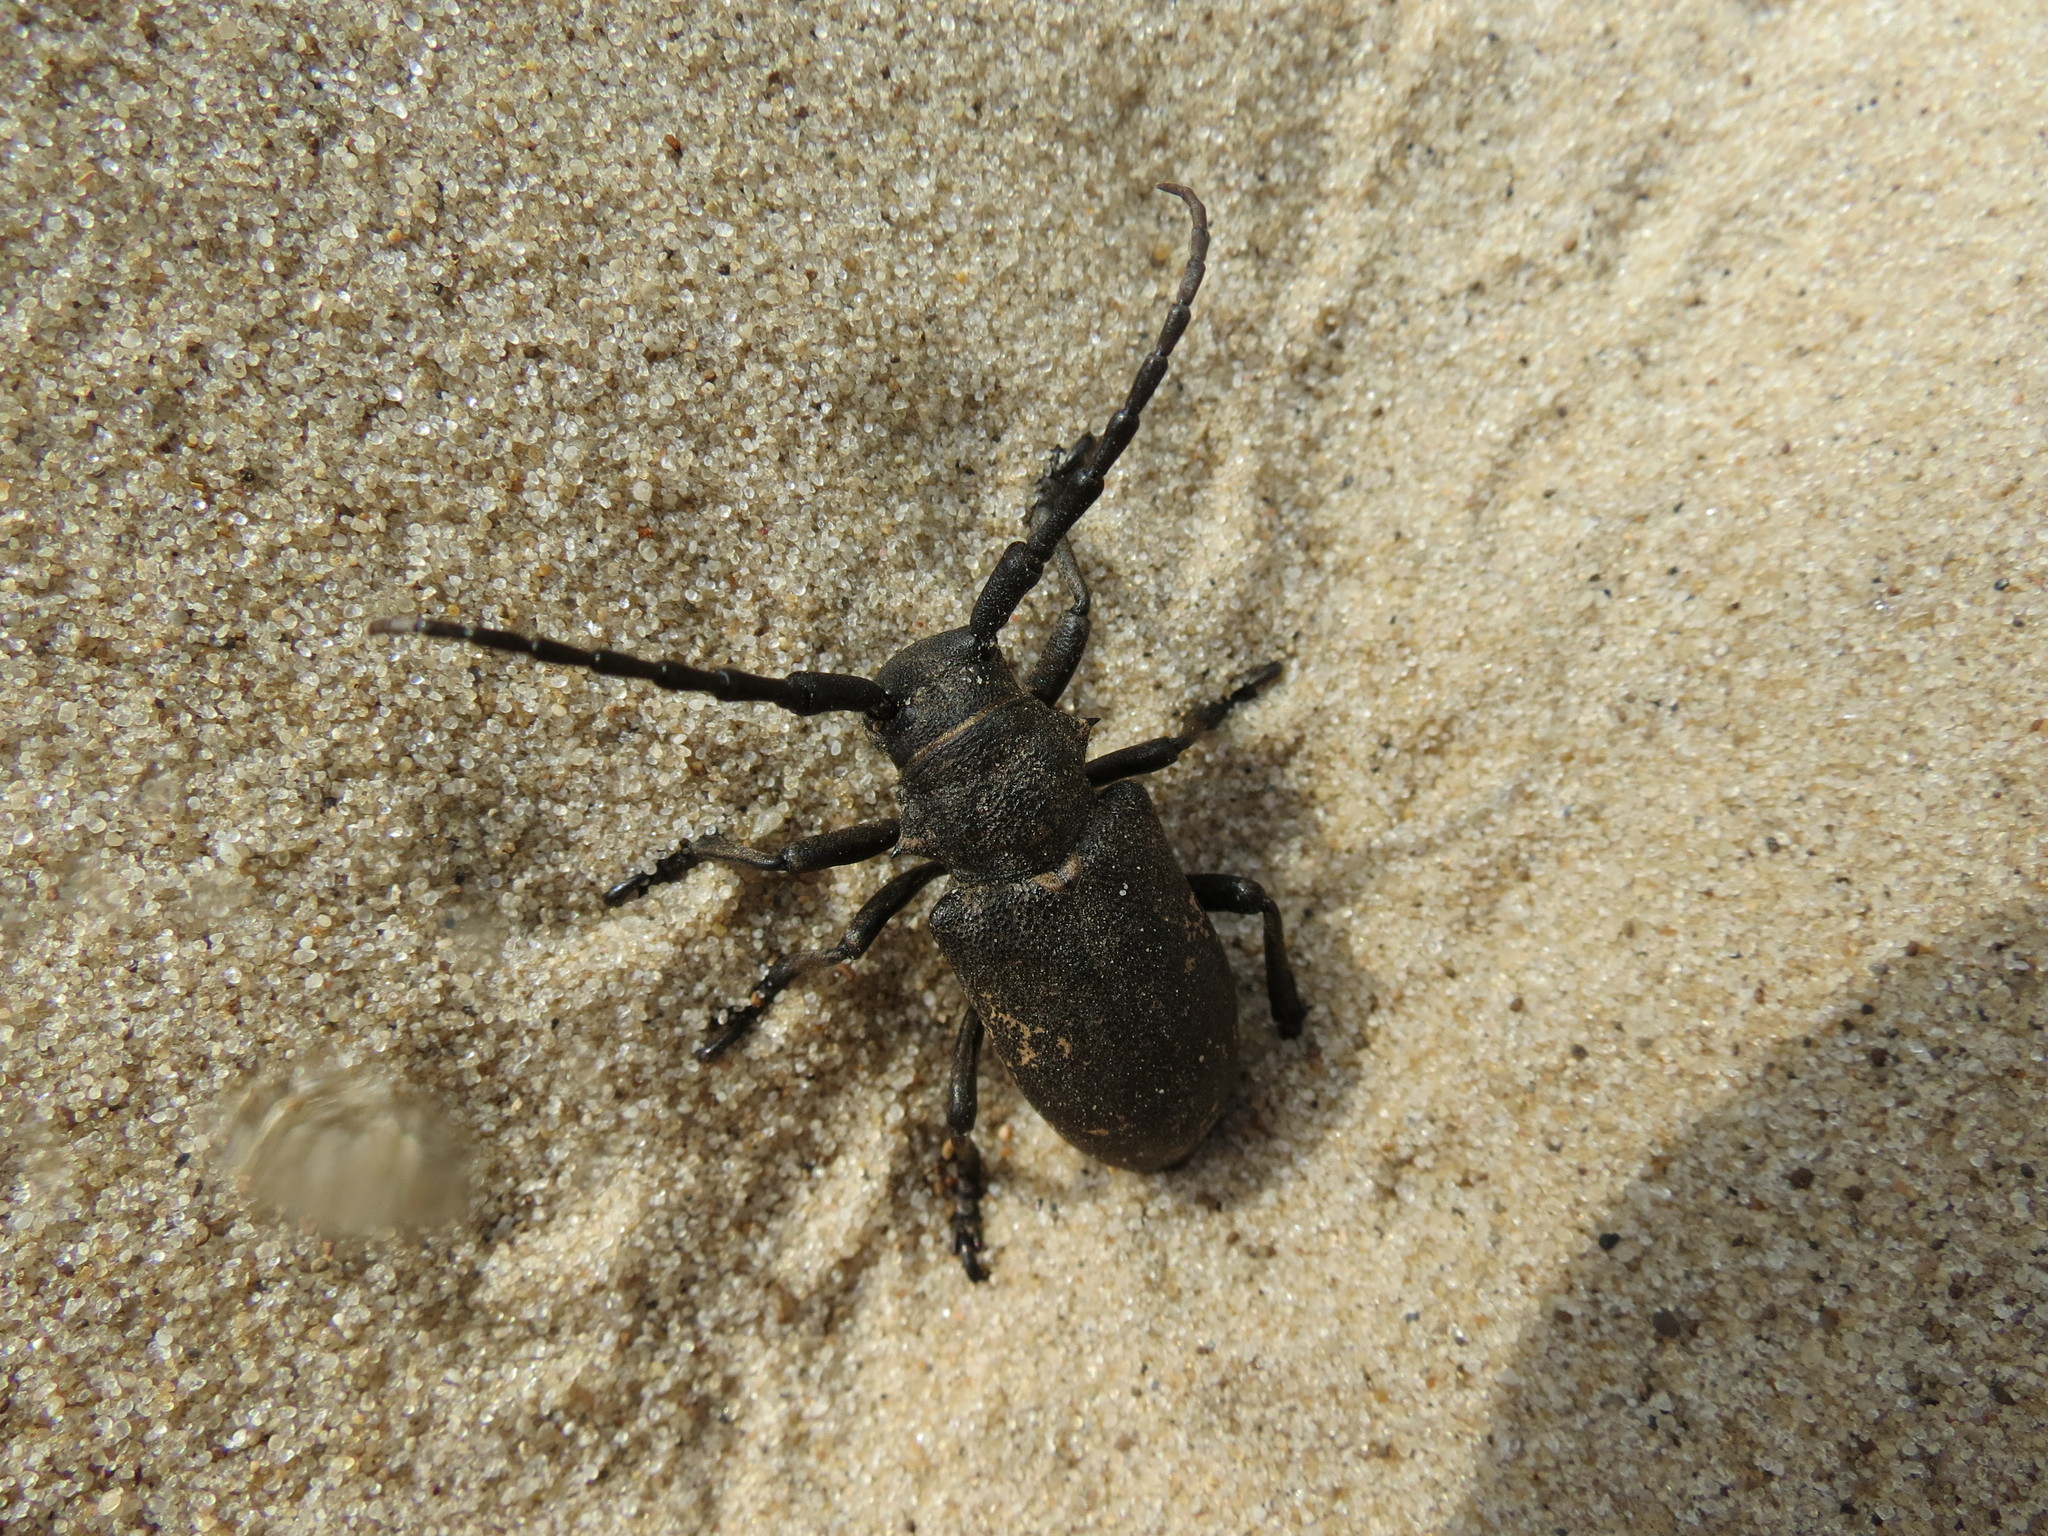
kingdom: Animalia
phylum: Arthropoda
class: Insecta
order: Coleoptera
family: Cerambycidae
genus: Lamia
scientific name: Lamia textor
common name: Weaver beetle
